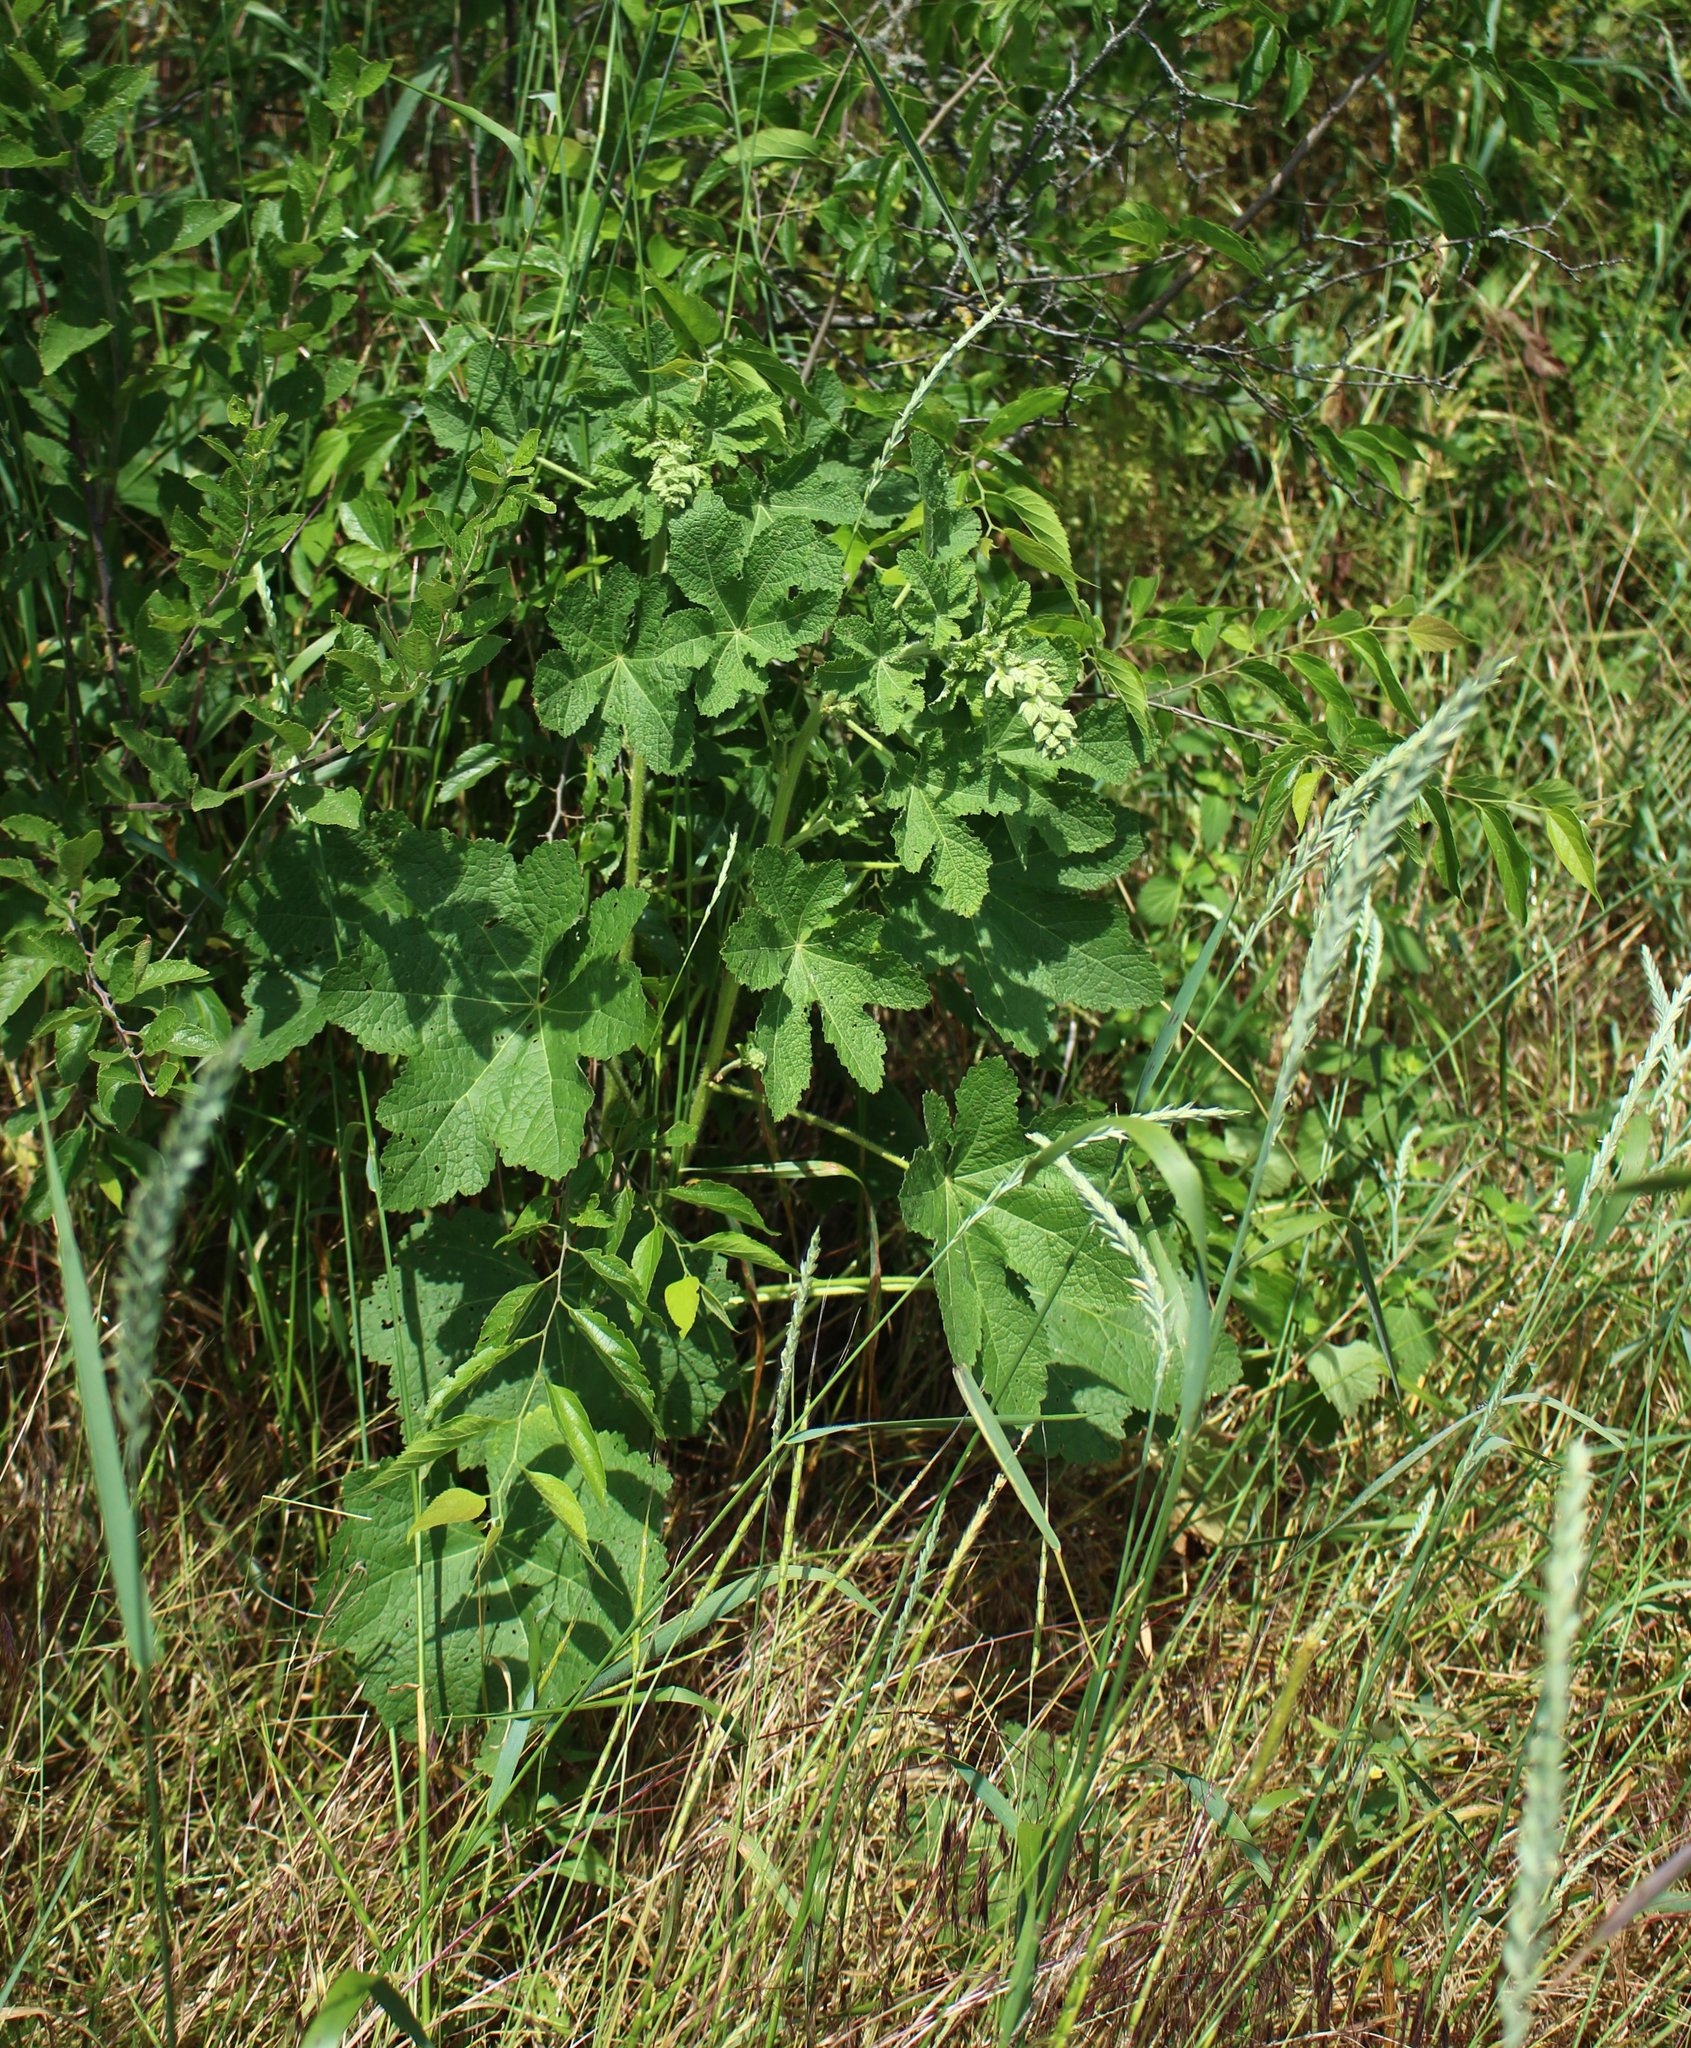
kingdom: Plantae
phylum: Tracheophyta
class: Magnoliopsida
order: Malvales
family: Malvaceae
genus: Alcea
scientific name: Alcea rugosa
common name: Russian hollyhock
